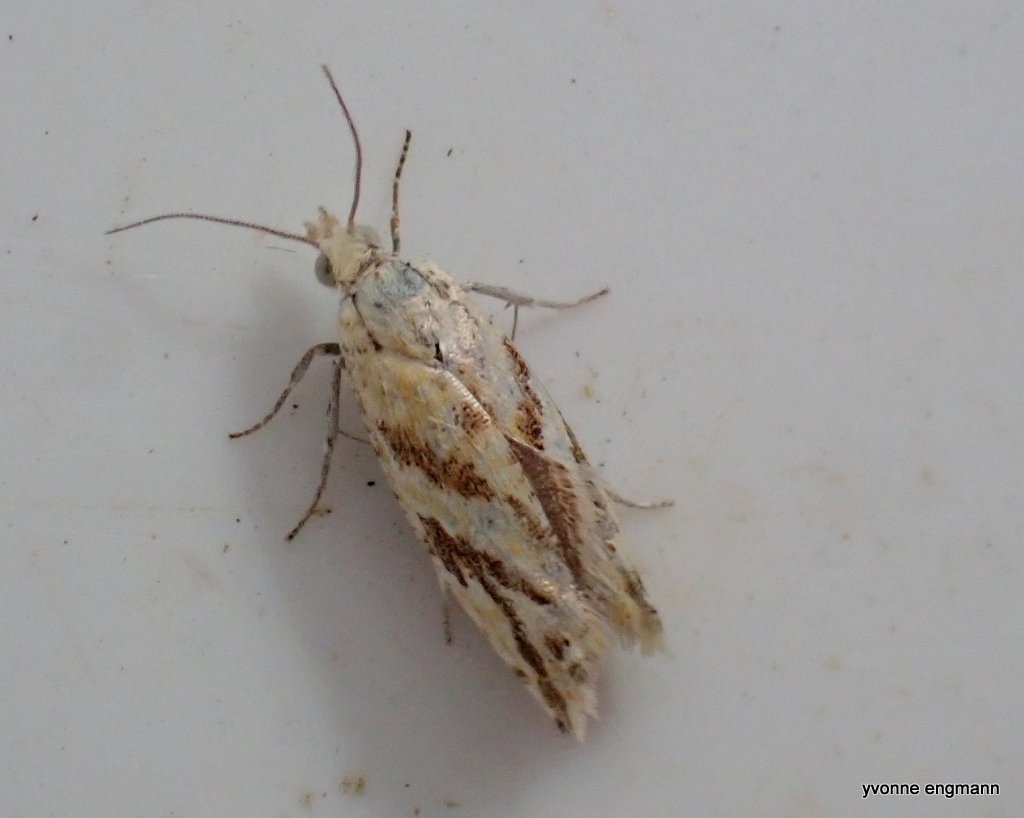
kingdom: Animalia
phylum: Arthropoda
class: Insecta
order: Lepidoptera
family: Tortricidae
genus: Thiodia
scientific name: Thiodia citrana
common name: Lemon bell
